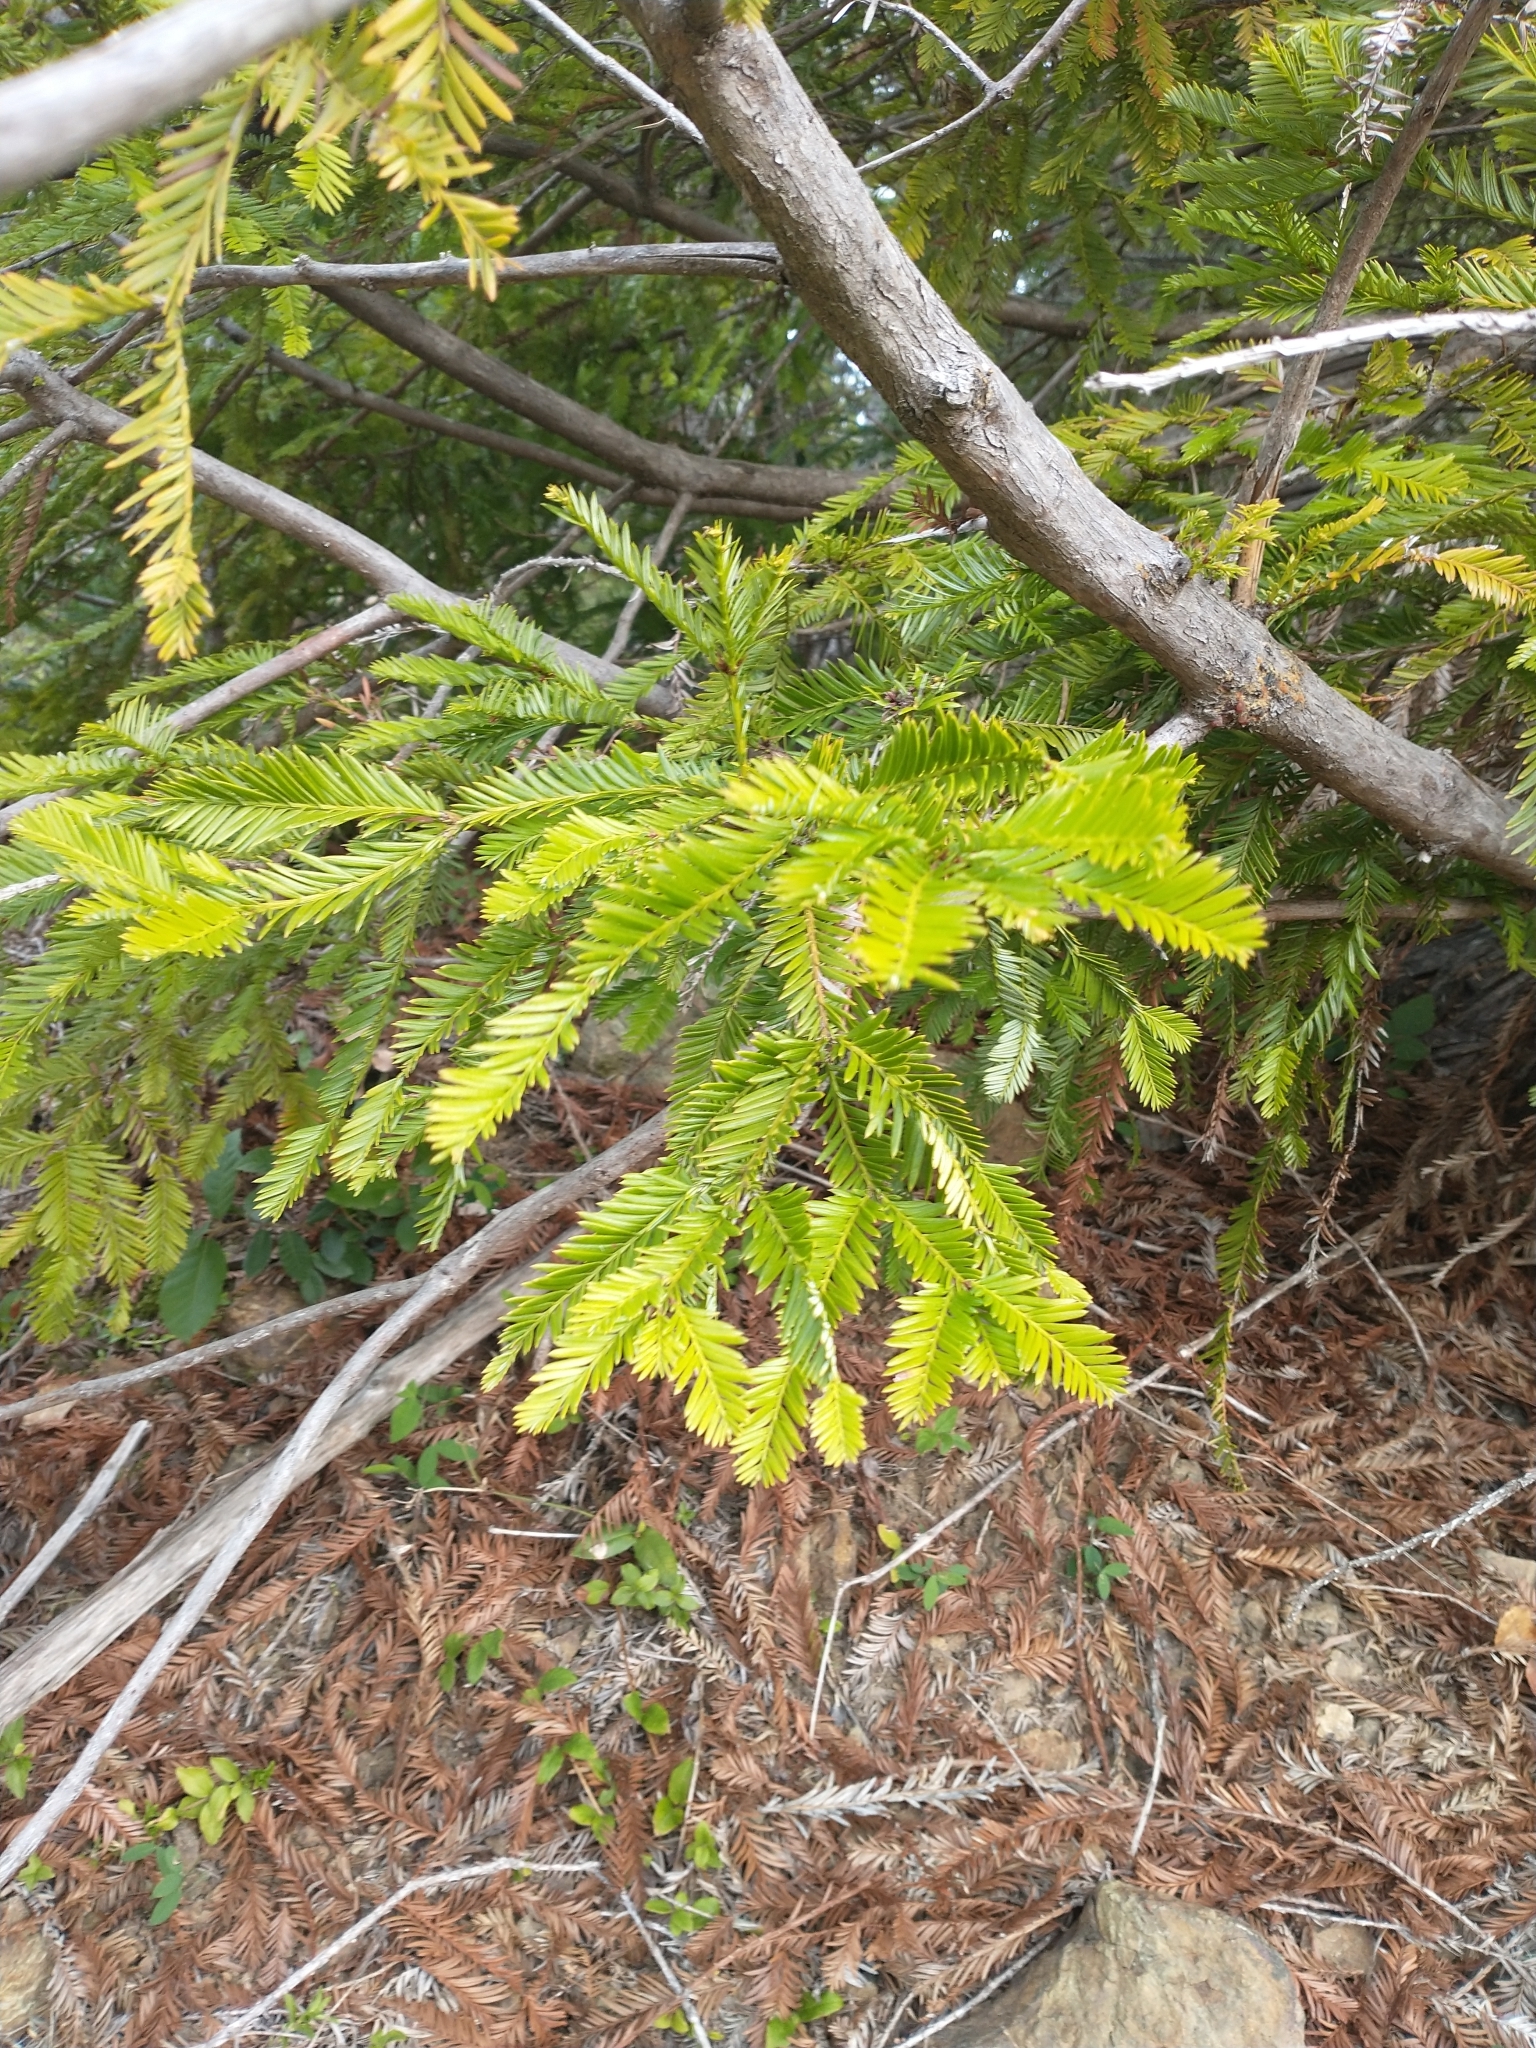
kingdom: Plantae
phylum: Tracheophyta
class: Pinopsida
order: Pinales
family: Cupressaceae
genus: Sequoia
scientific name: Sequoia sempervirens
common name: Coast redwood
